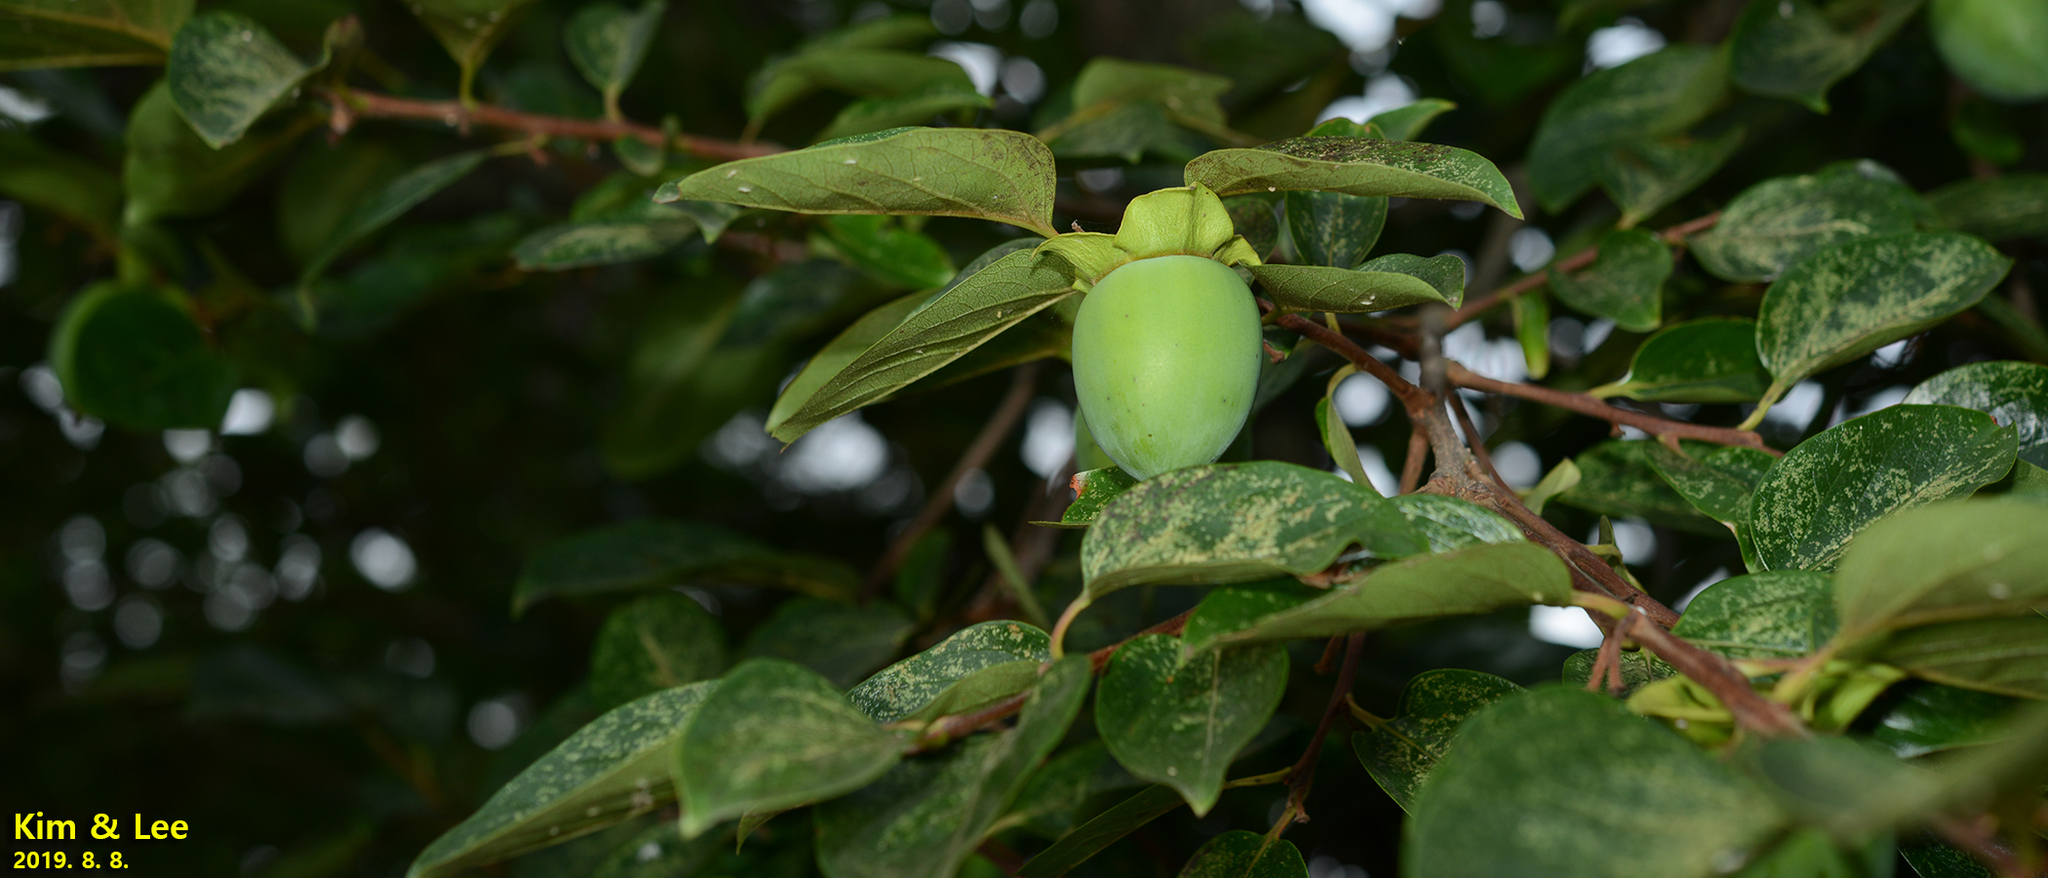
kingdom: Plantae
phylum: Tracheophyta
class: Magnoliopsida
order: Ericales
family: Ebenaceae
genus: Diospyros
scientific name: Diospyros kaki
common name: Persimmon
